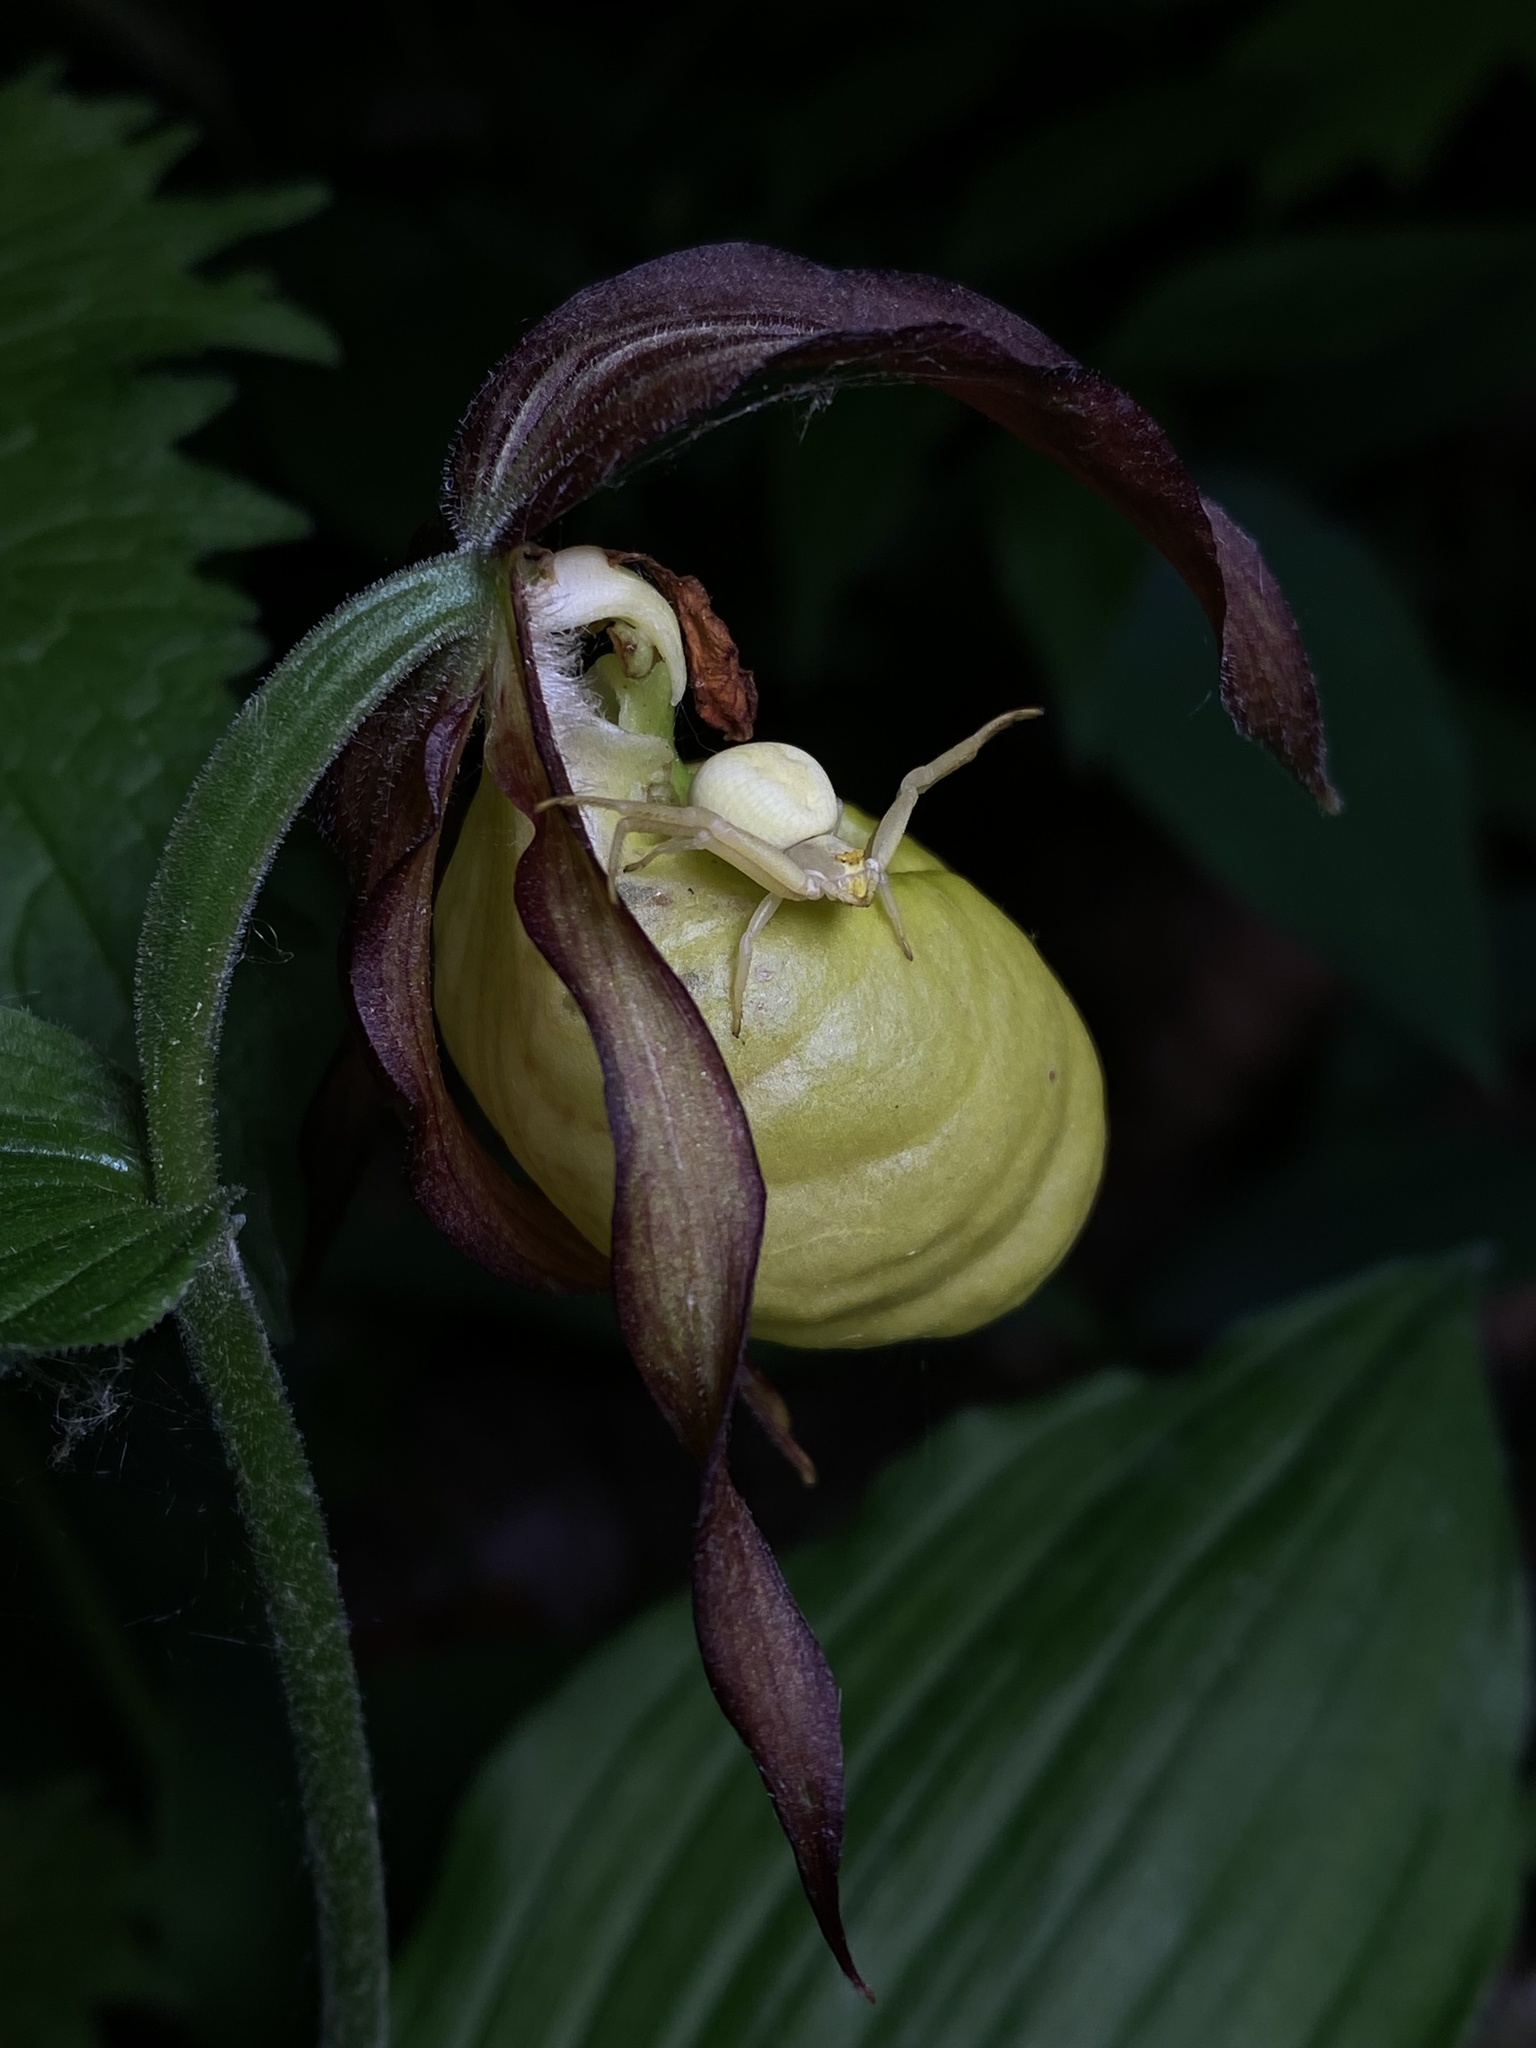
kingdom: Animalia
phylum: Arthropoda
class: Arachnida
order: Araneae
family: Thomisidae
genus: Misumena
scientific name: Misumena vatia
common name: Goldenrod crab spider
